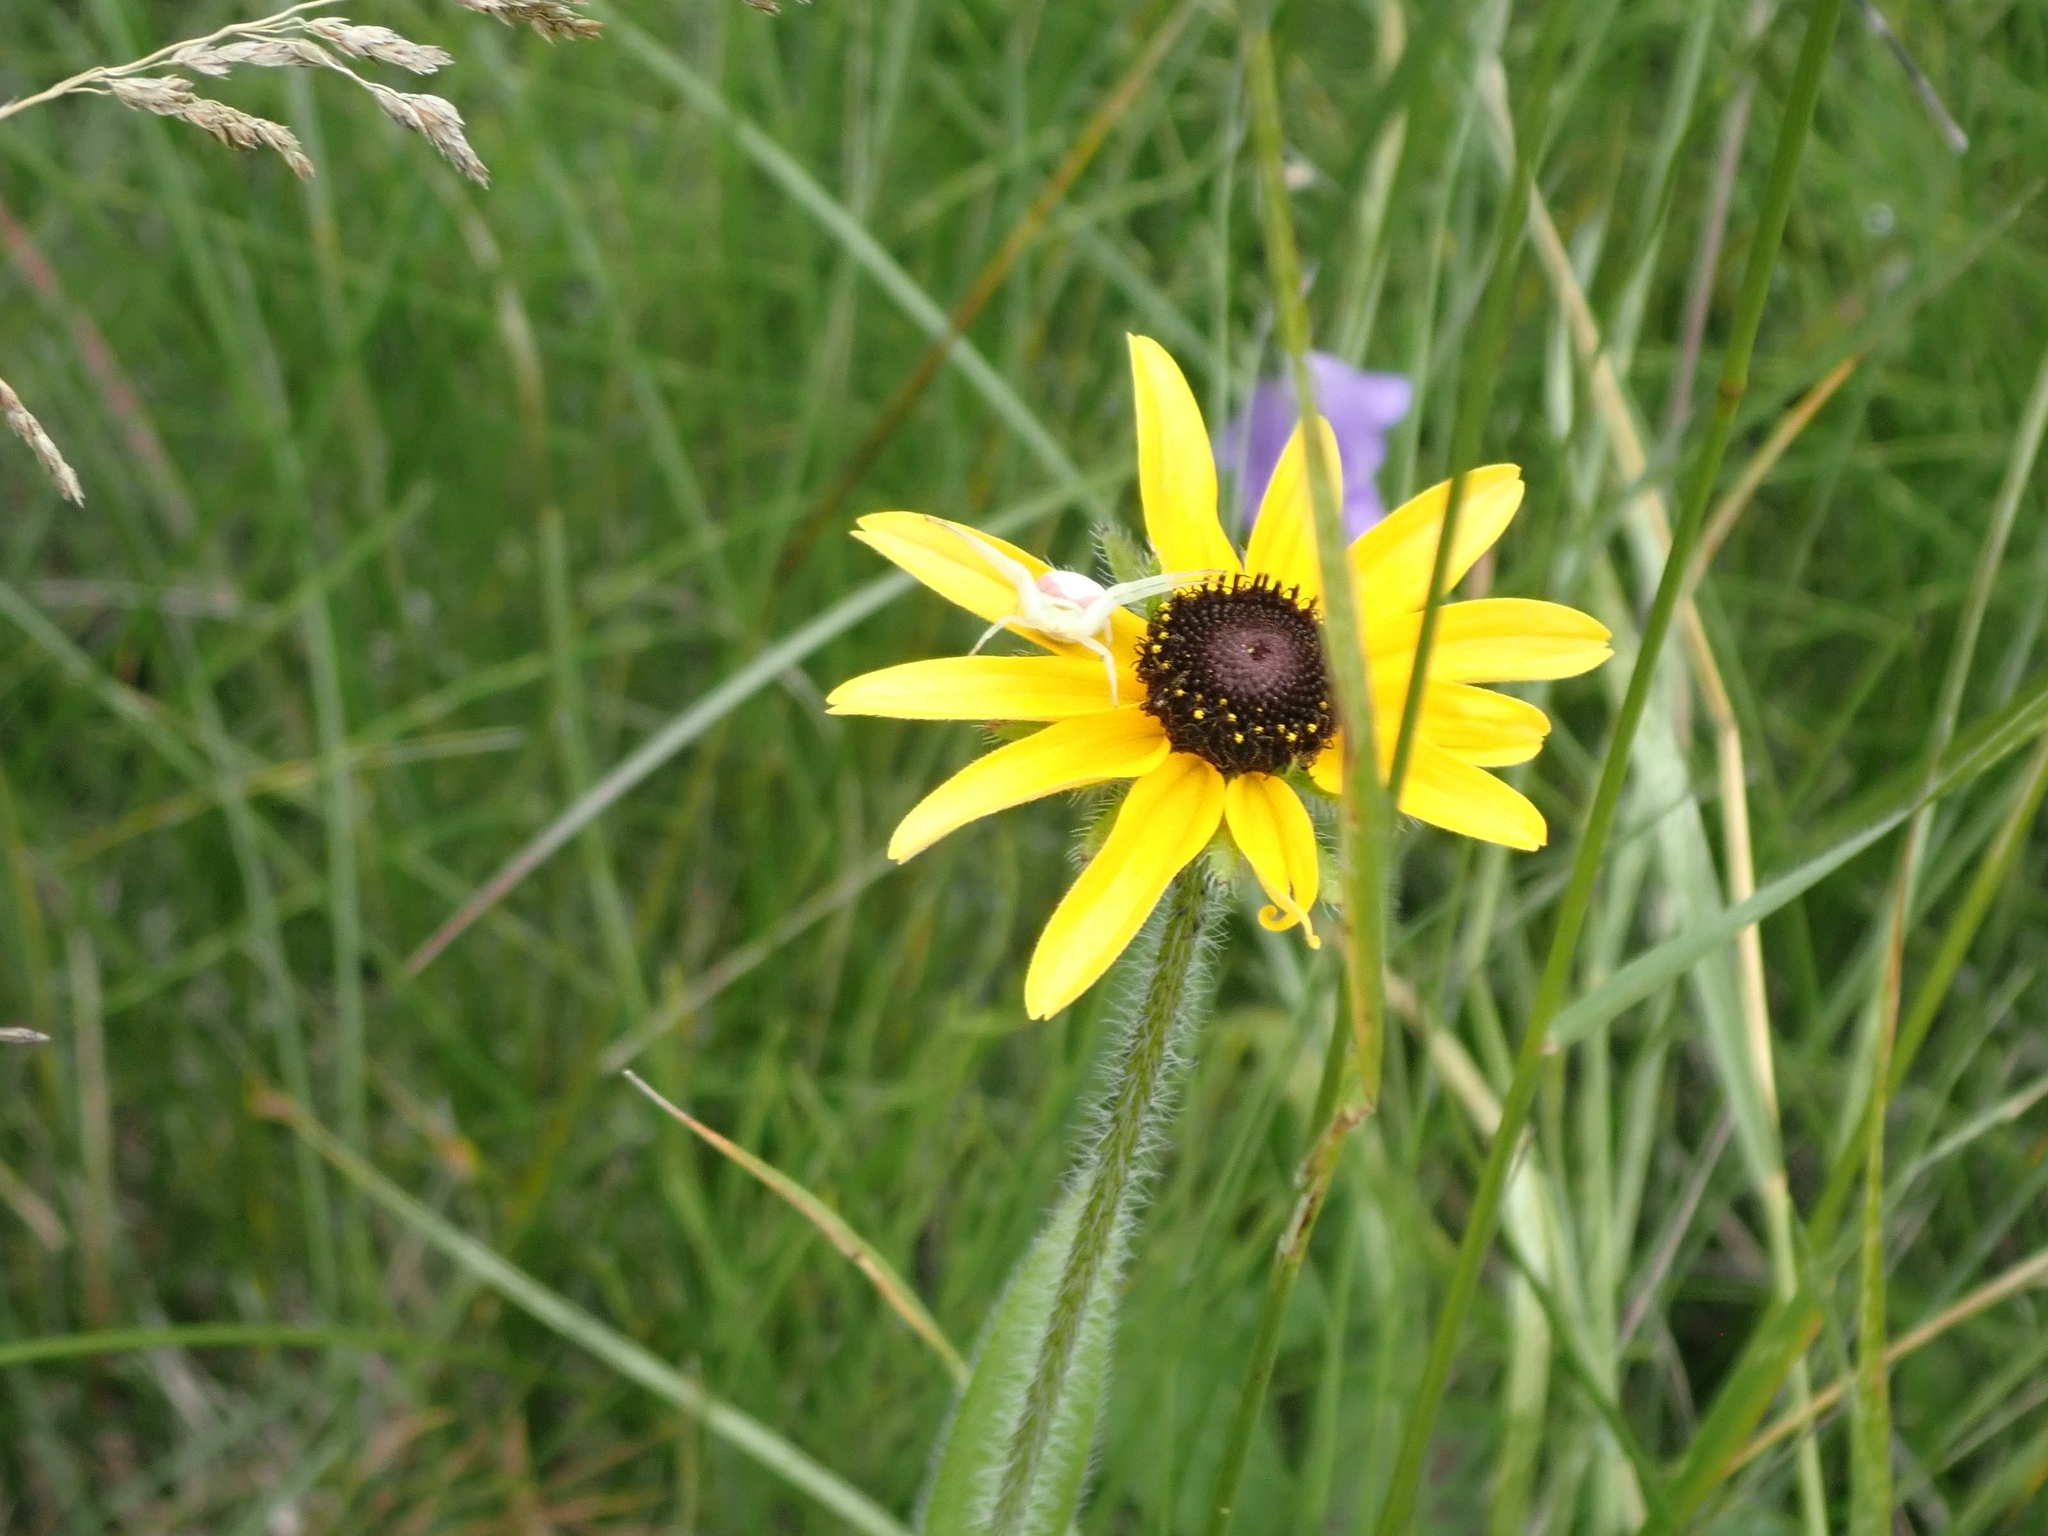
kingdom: Plantae
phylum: Tracheophyta
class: Magnoliopsida
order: Asterales
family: Asteraceae
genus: Rudbeckia
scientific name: Rudbeckia hirta
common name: Black-eyed-susan
